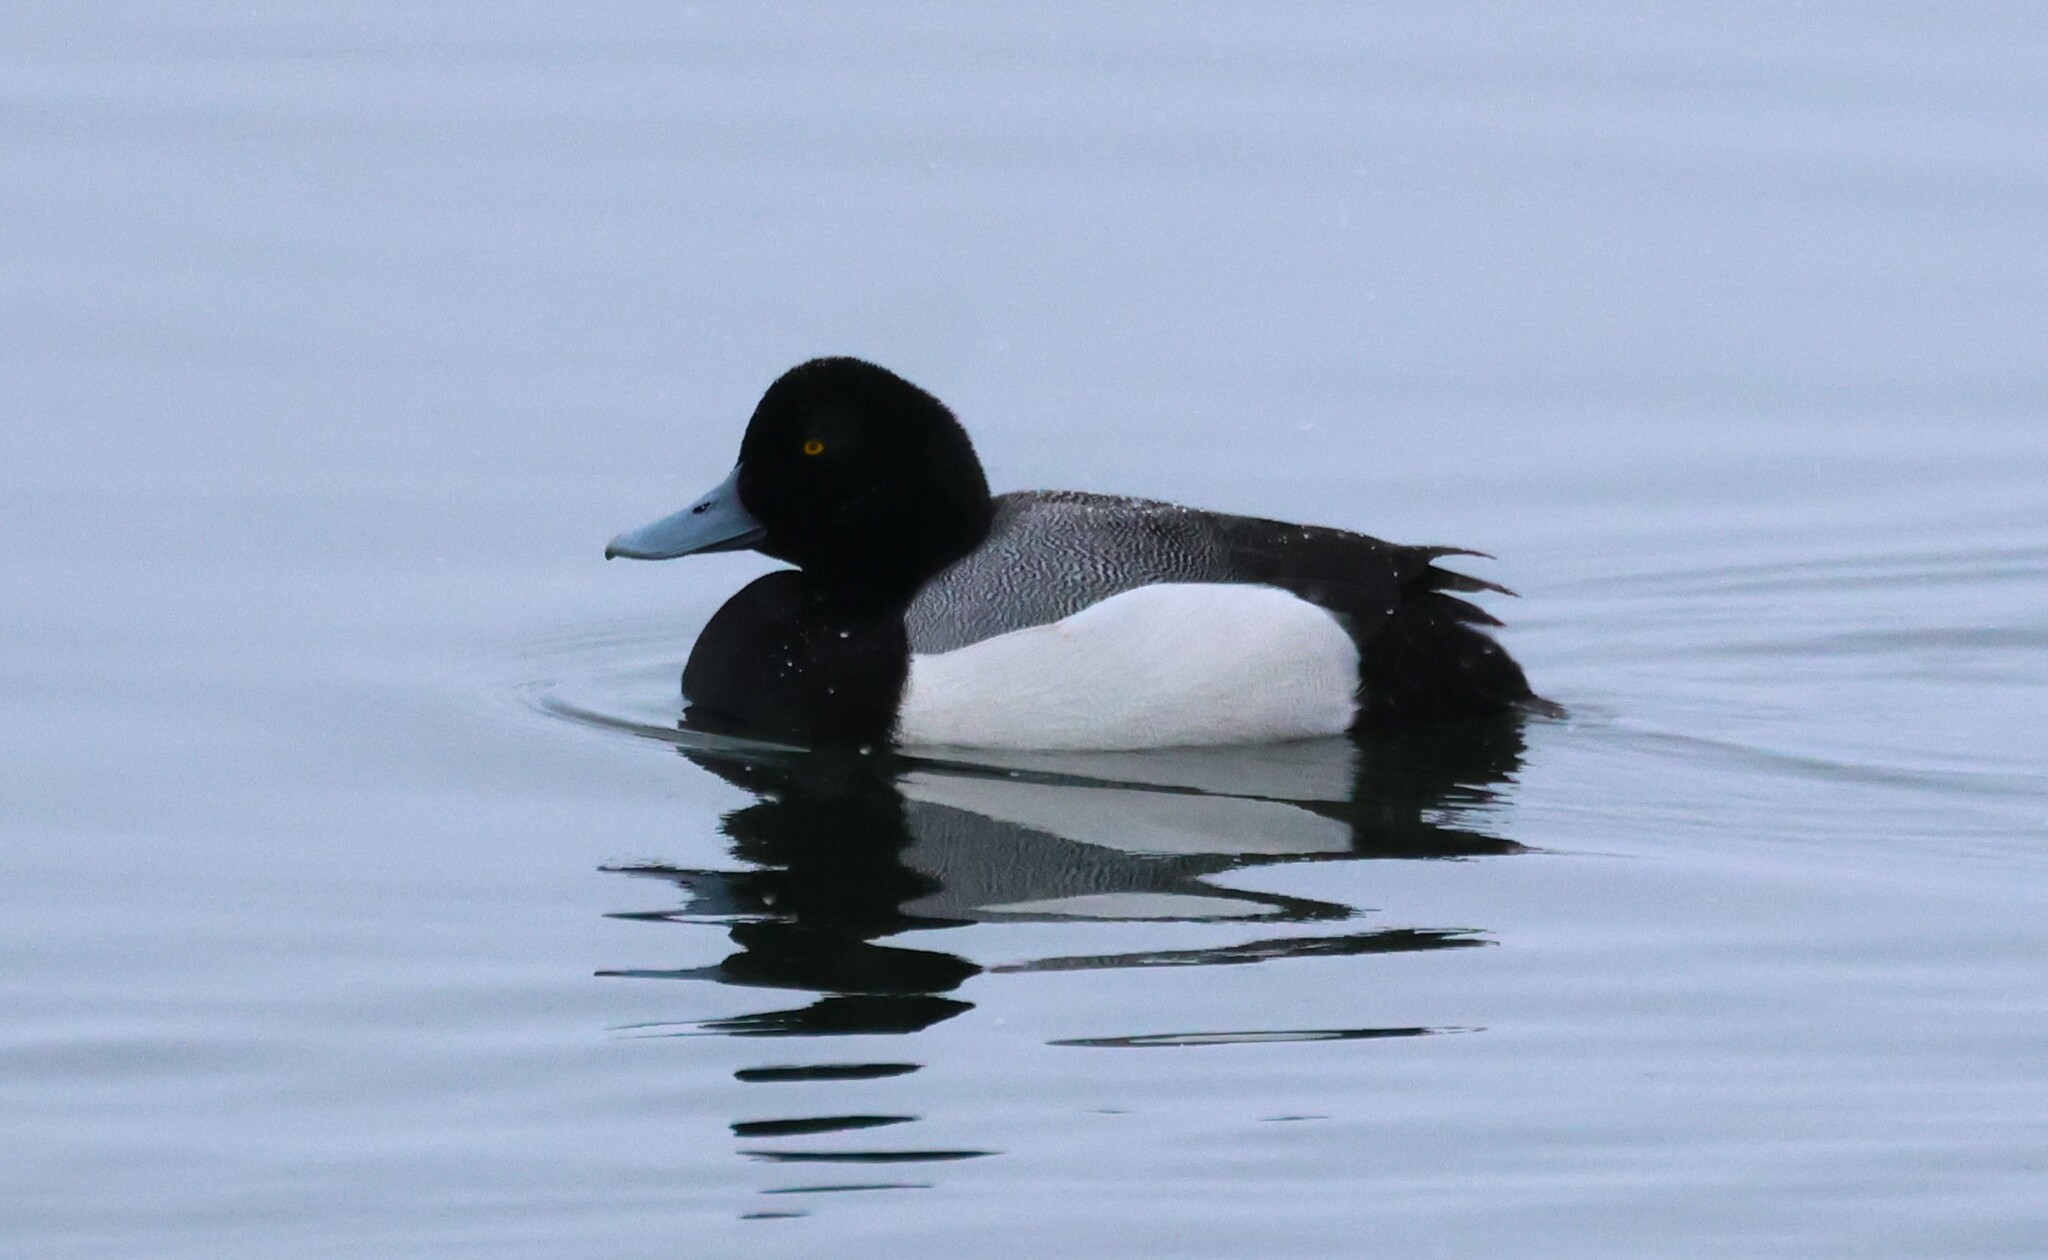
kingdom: Animalia
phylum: Chordata
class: Aves
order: Anseriformes
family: Anatidae
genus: Aythya
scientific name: Aythya marila
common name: Greater scaup
